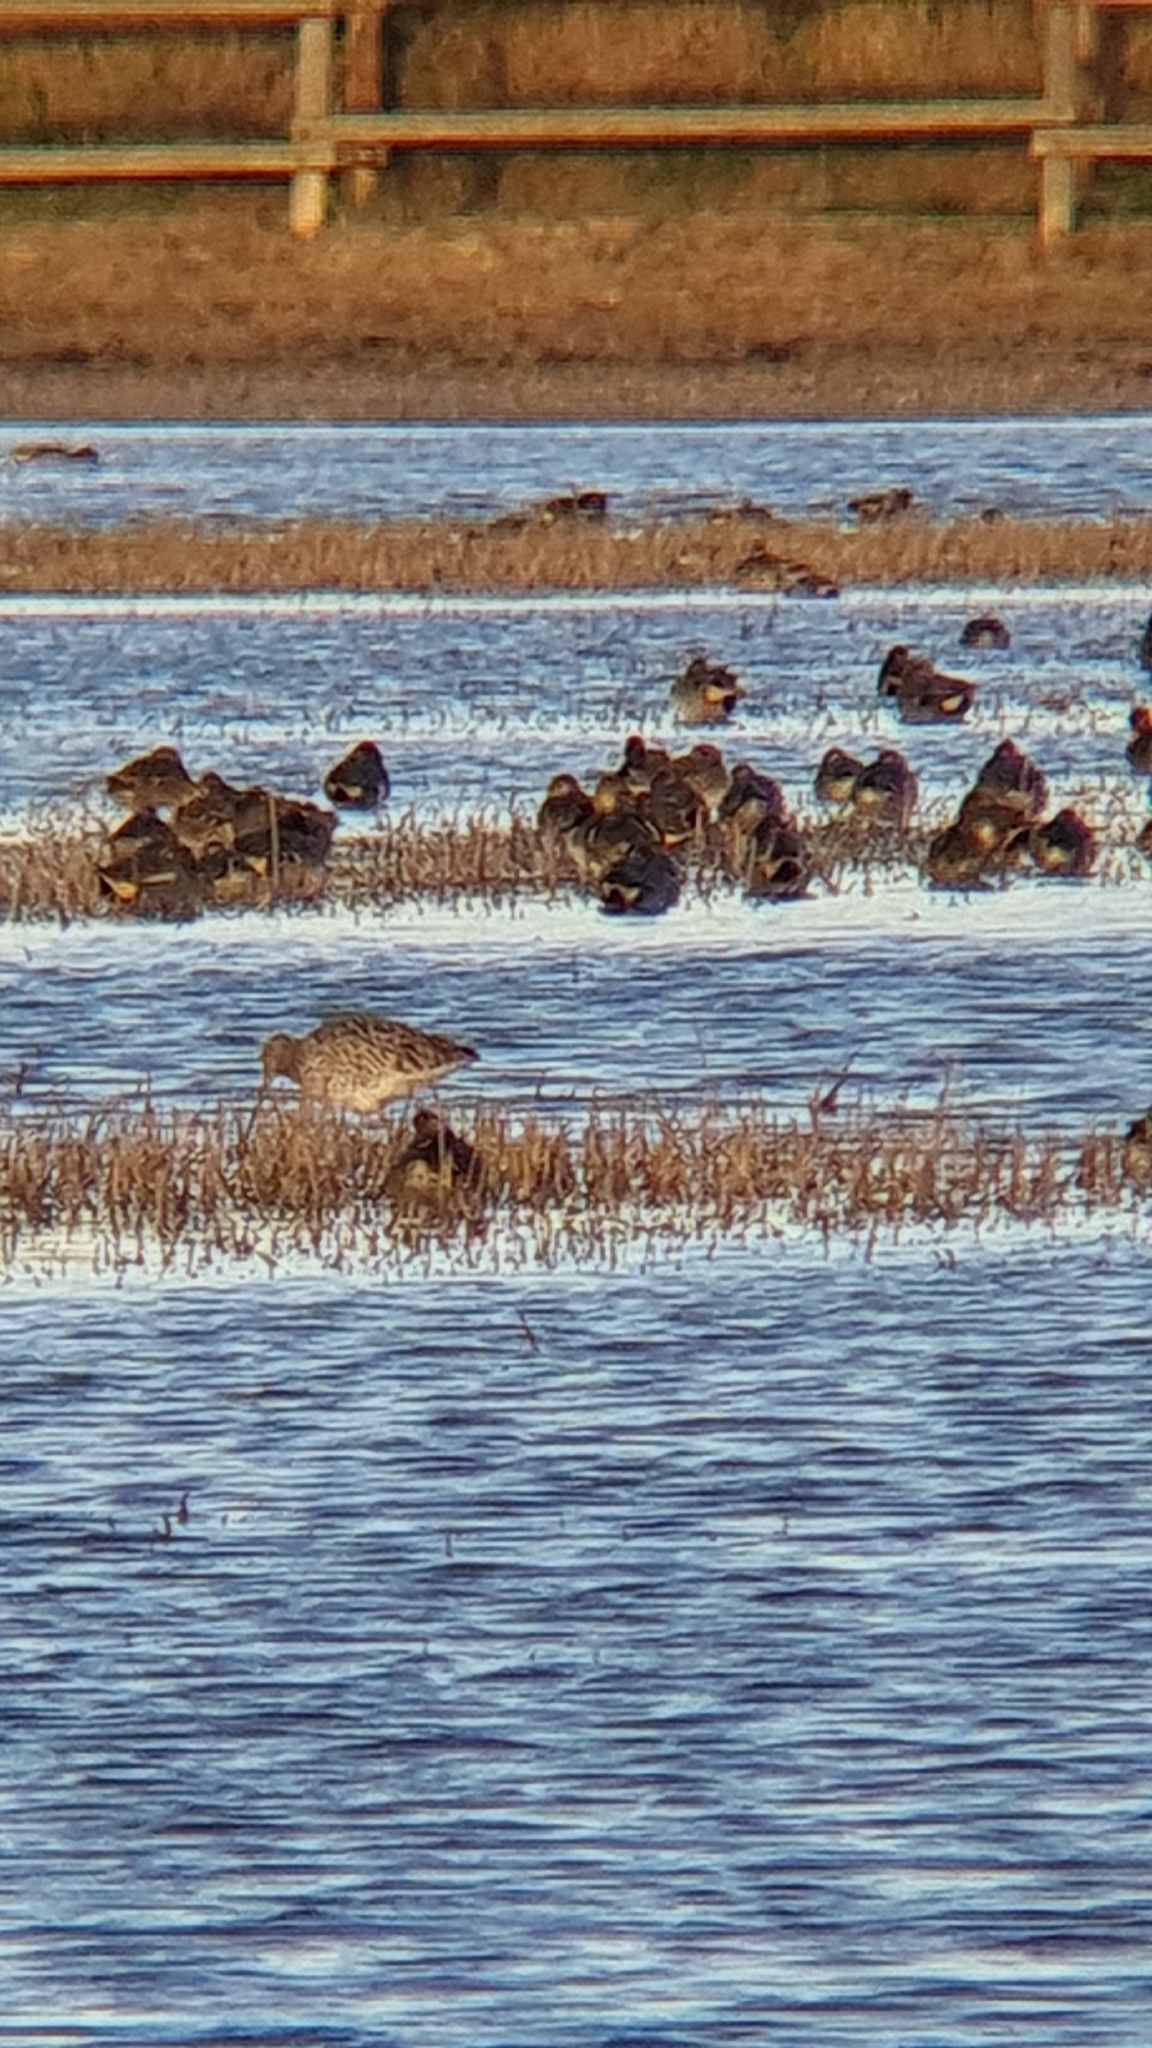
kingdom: Animalia
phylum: Chordata
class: Aves
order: Charadriiformes
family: Scolopacidae
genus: Numenius
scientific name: Numenius arquata
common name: Eurasian curlew
